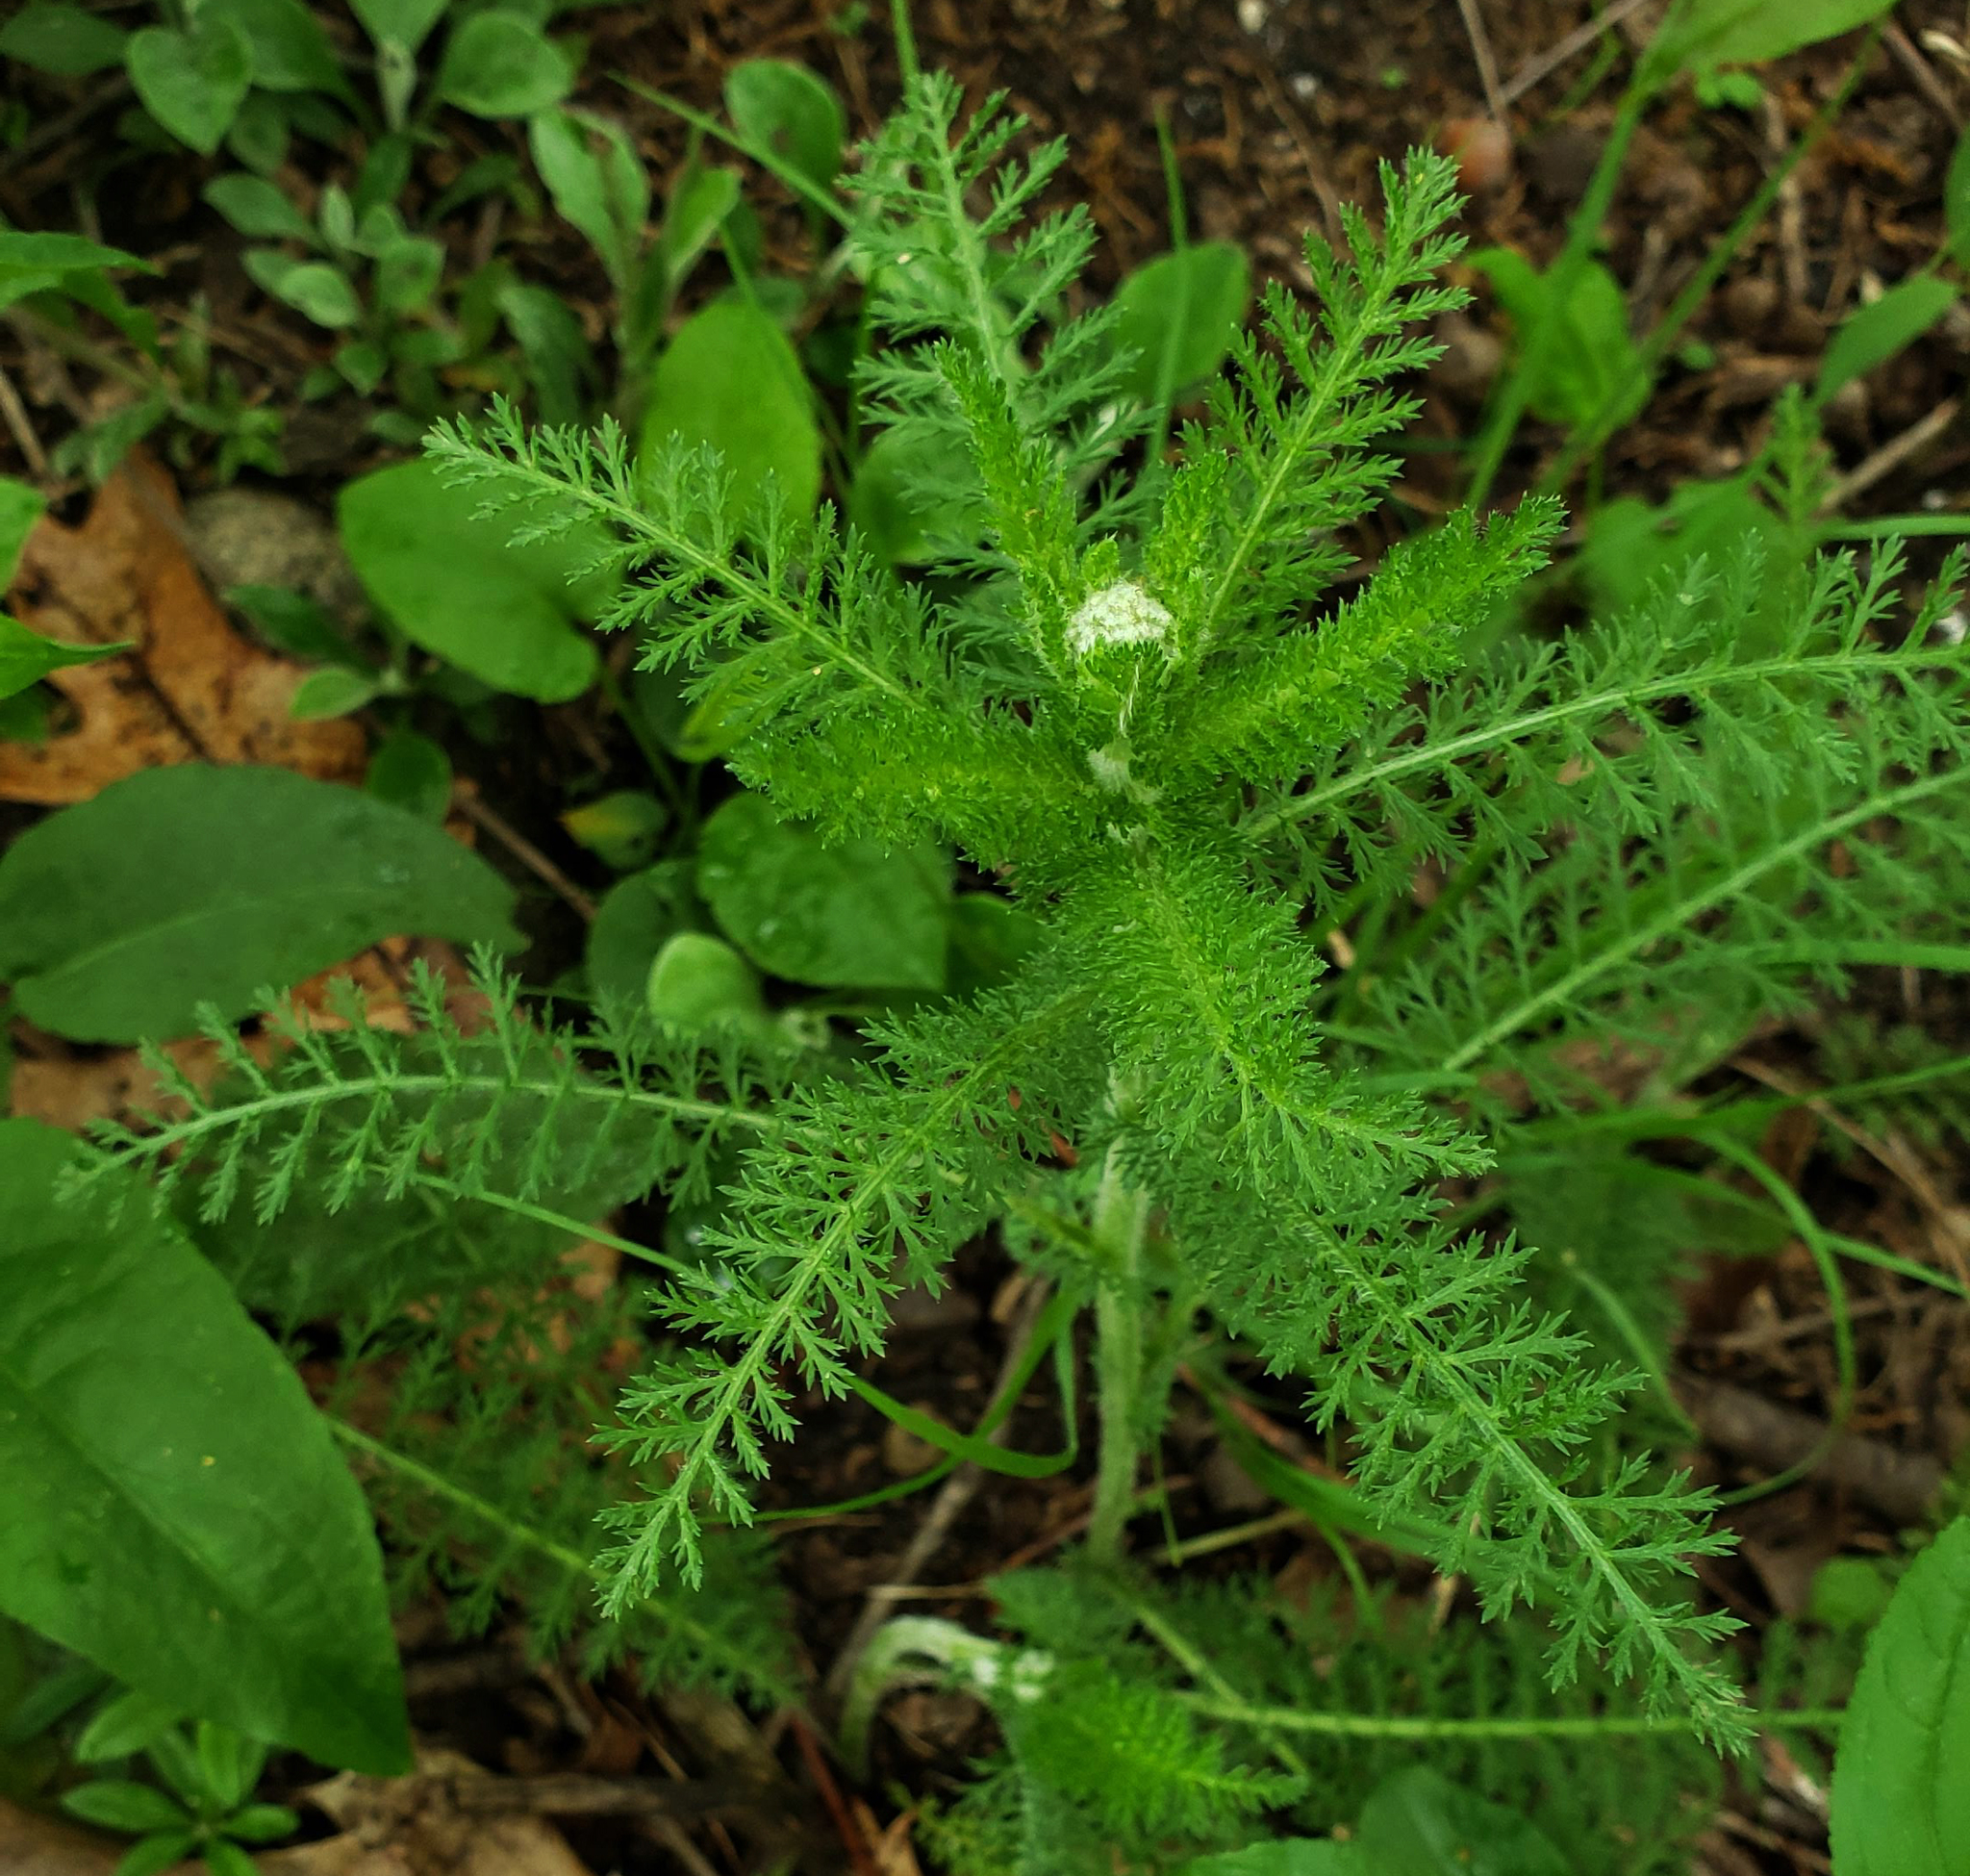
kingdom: Plantae
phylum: Tracheophyta
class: Magnoliopsida
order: Asterales
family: Asteraceae
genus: Achillea
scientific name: Achillea millefolium
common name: Yarrow
